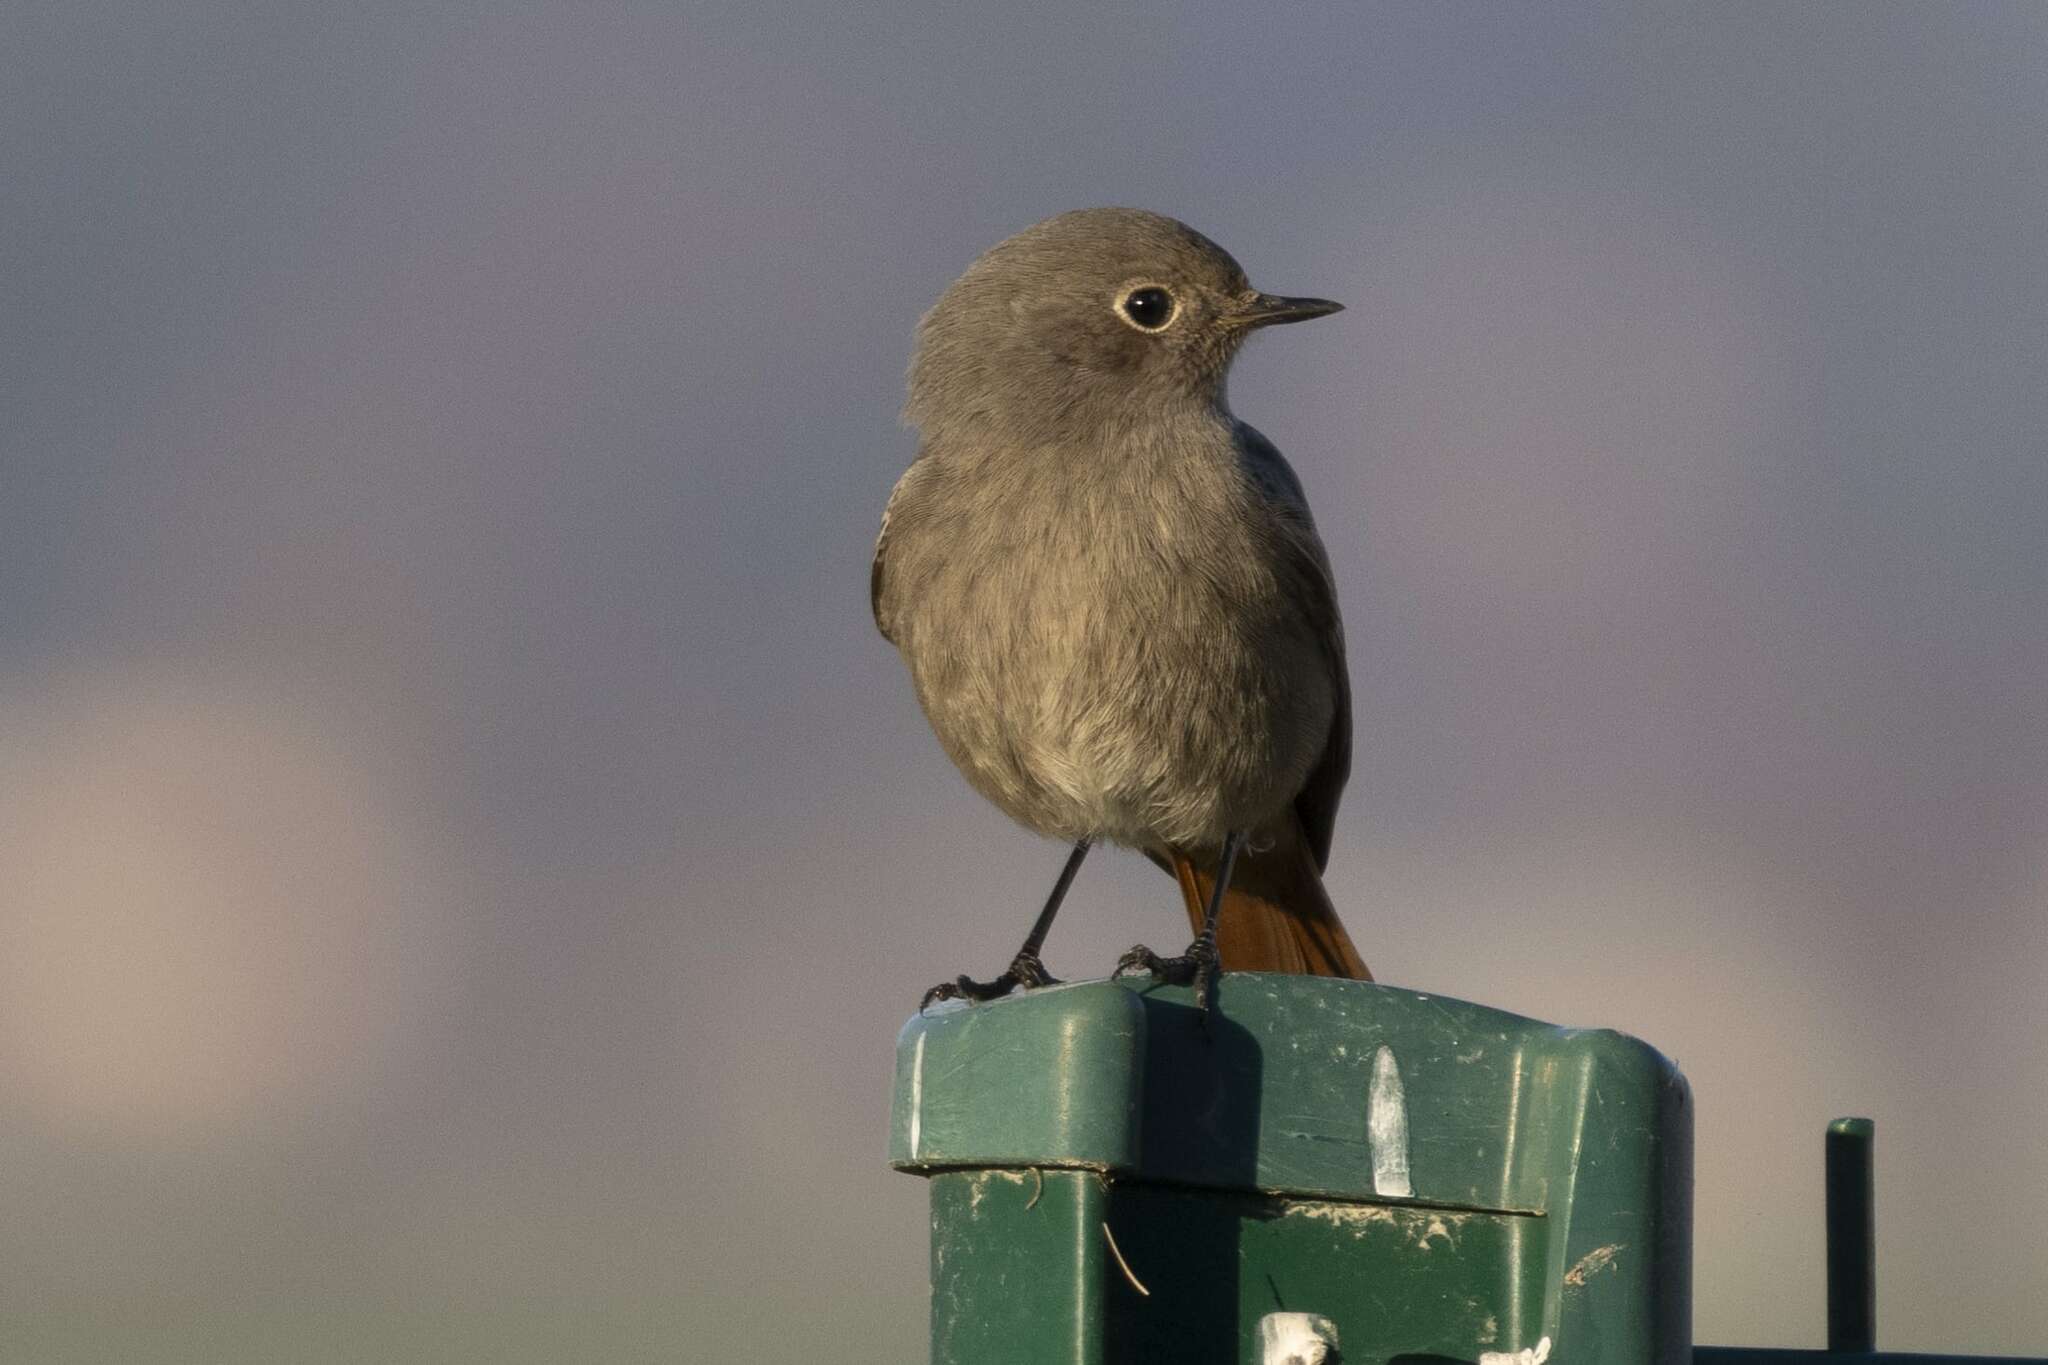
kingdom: Animalia
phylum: Chordata
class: Aves
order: Passeriformes
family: Muscicapidae
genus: Phoenicurus
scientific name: Phoenicurus ochruros
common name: Black redstart
